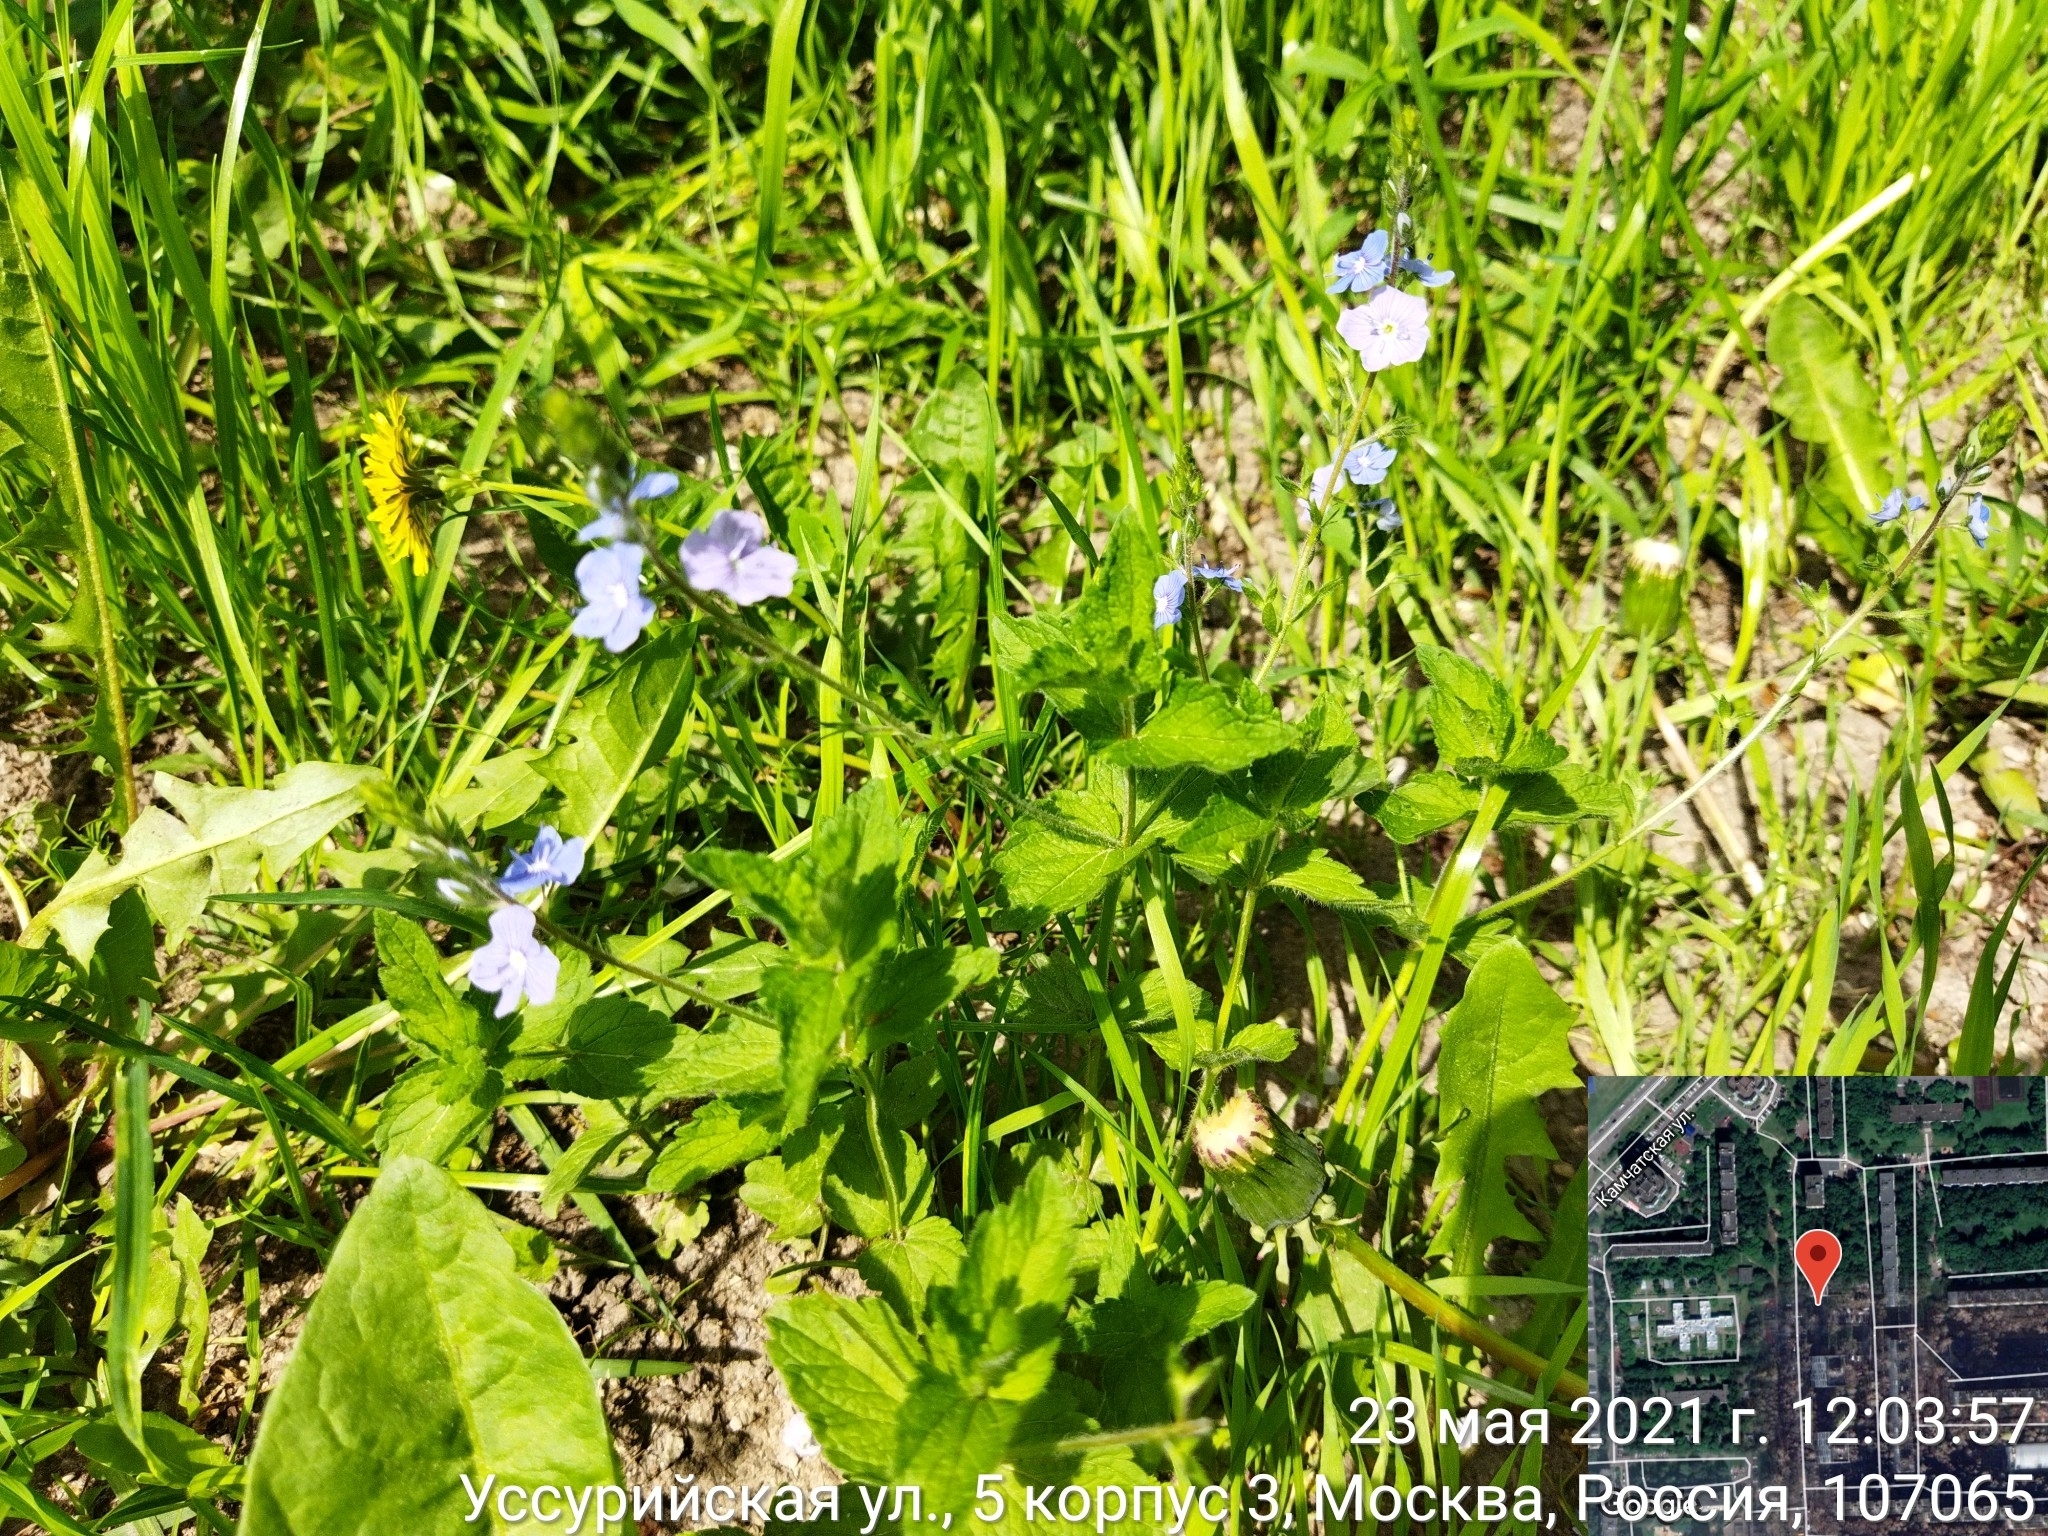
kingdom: Plantae
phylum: Tracheophyta
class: Magnoliopsida
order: Lamiales
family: Plantaginaceae
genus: Veronica
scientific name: Veronica chamaedrys
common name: Germander speedwell
